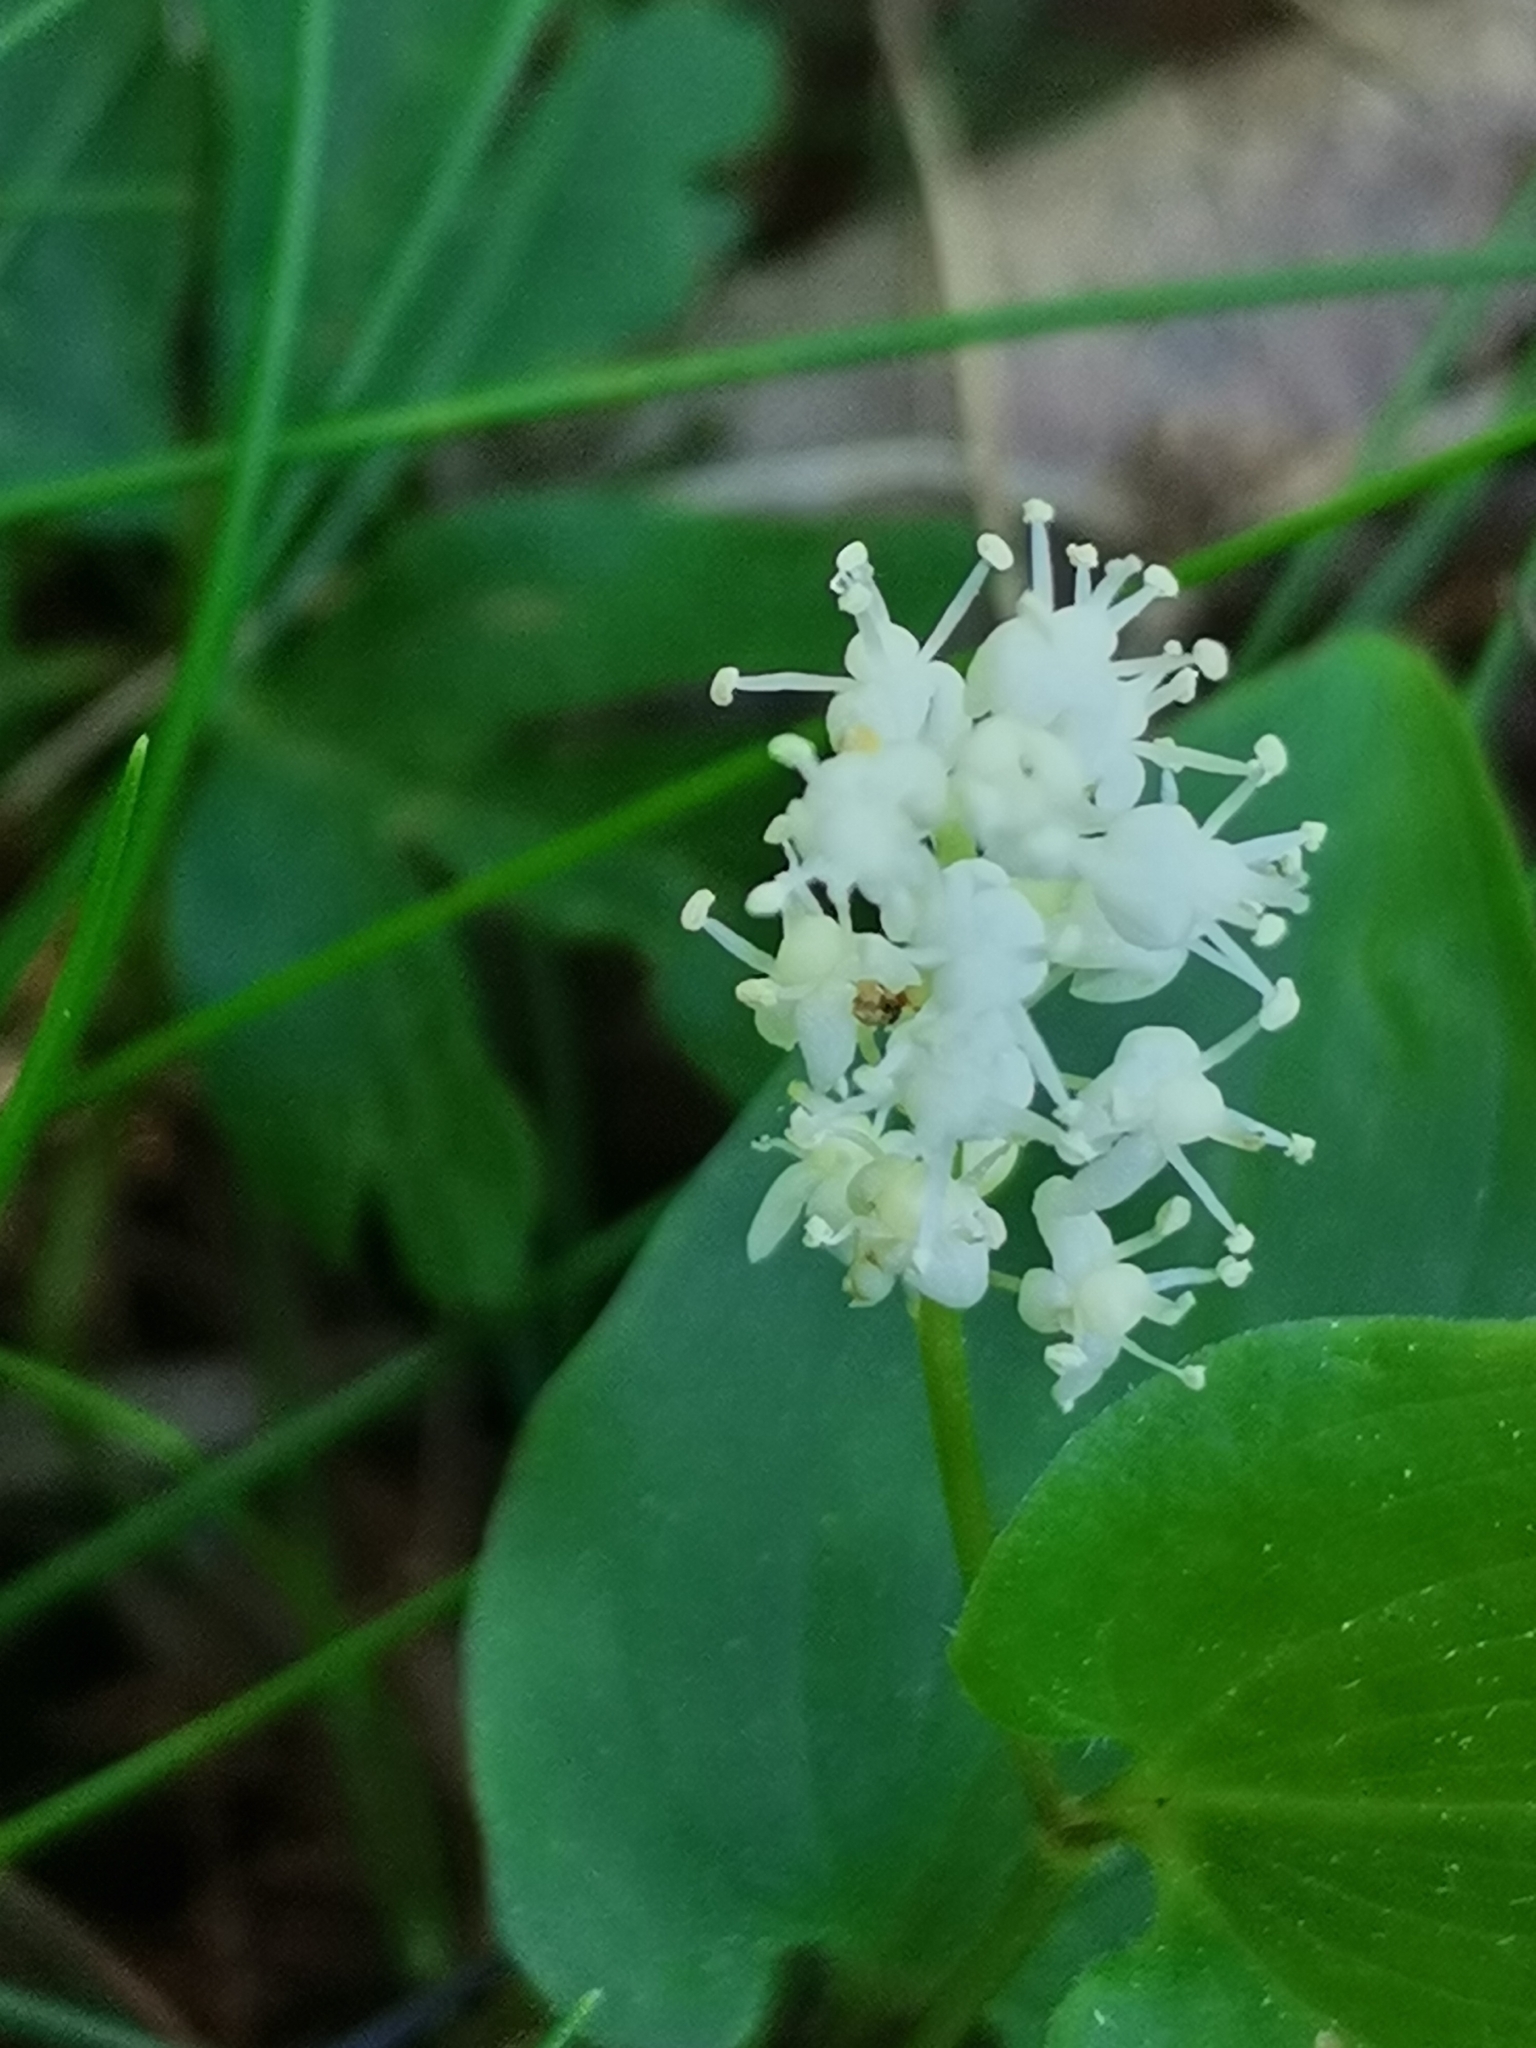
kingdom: Plantae
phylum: Tracheophyta
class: Liliopsida
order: Asparagales
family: Asparagaceae
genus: Maianthemum
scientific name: Maianthemum bifolium
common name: May lily
